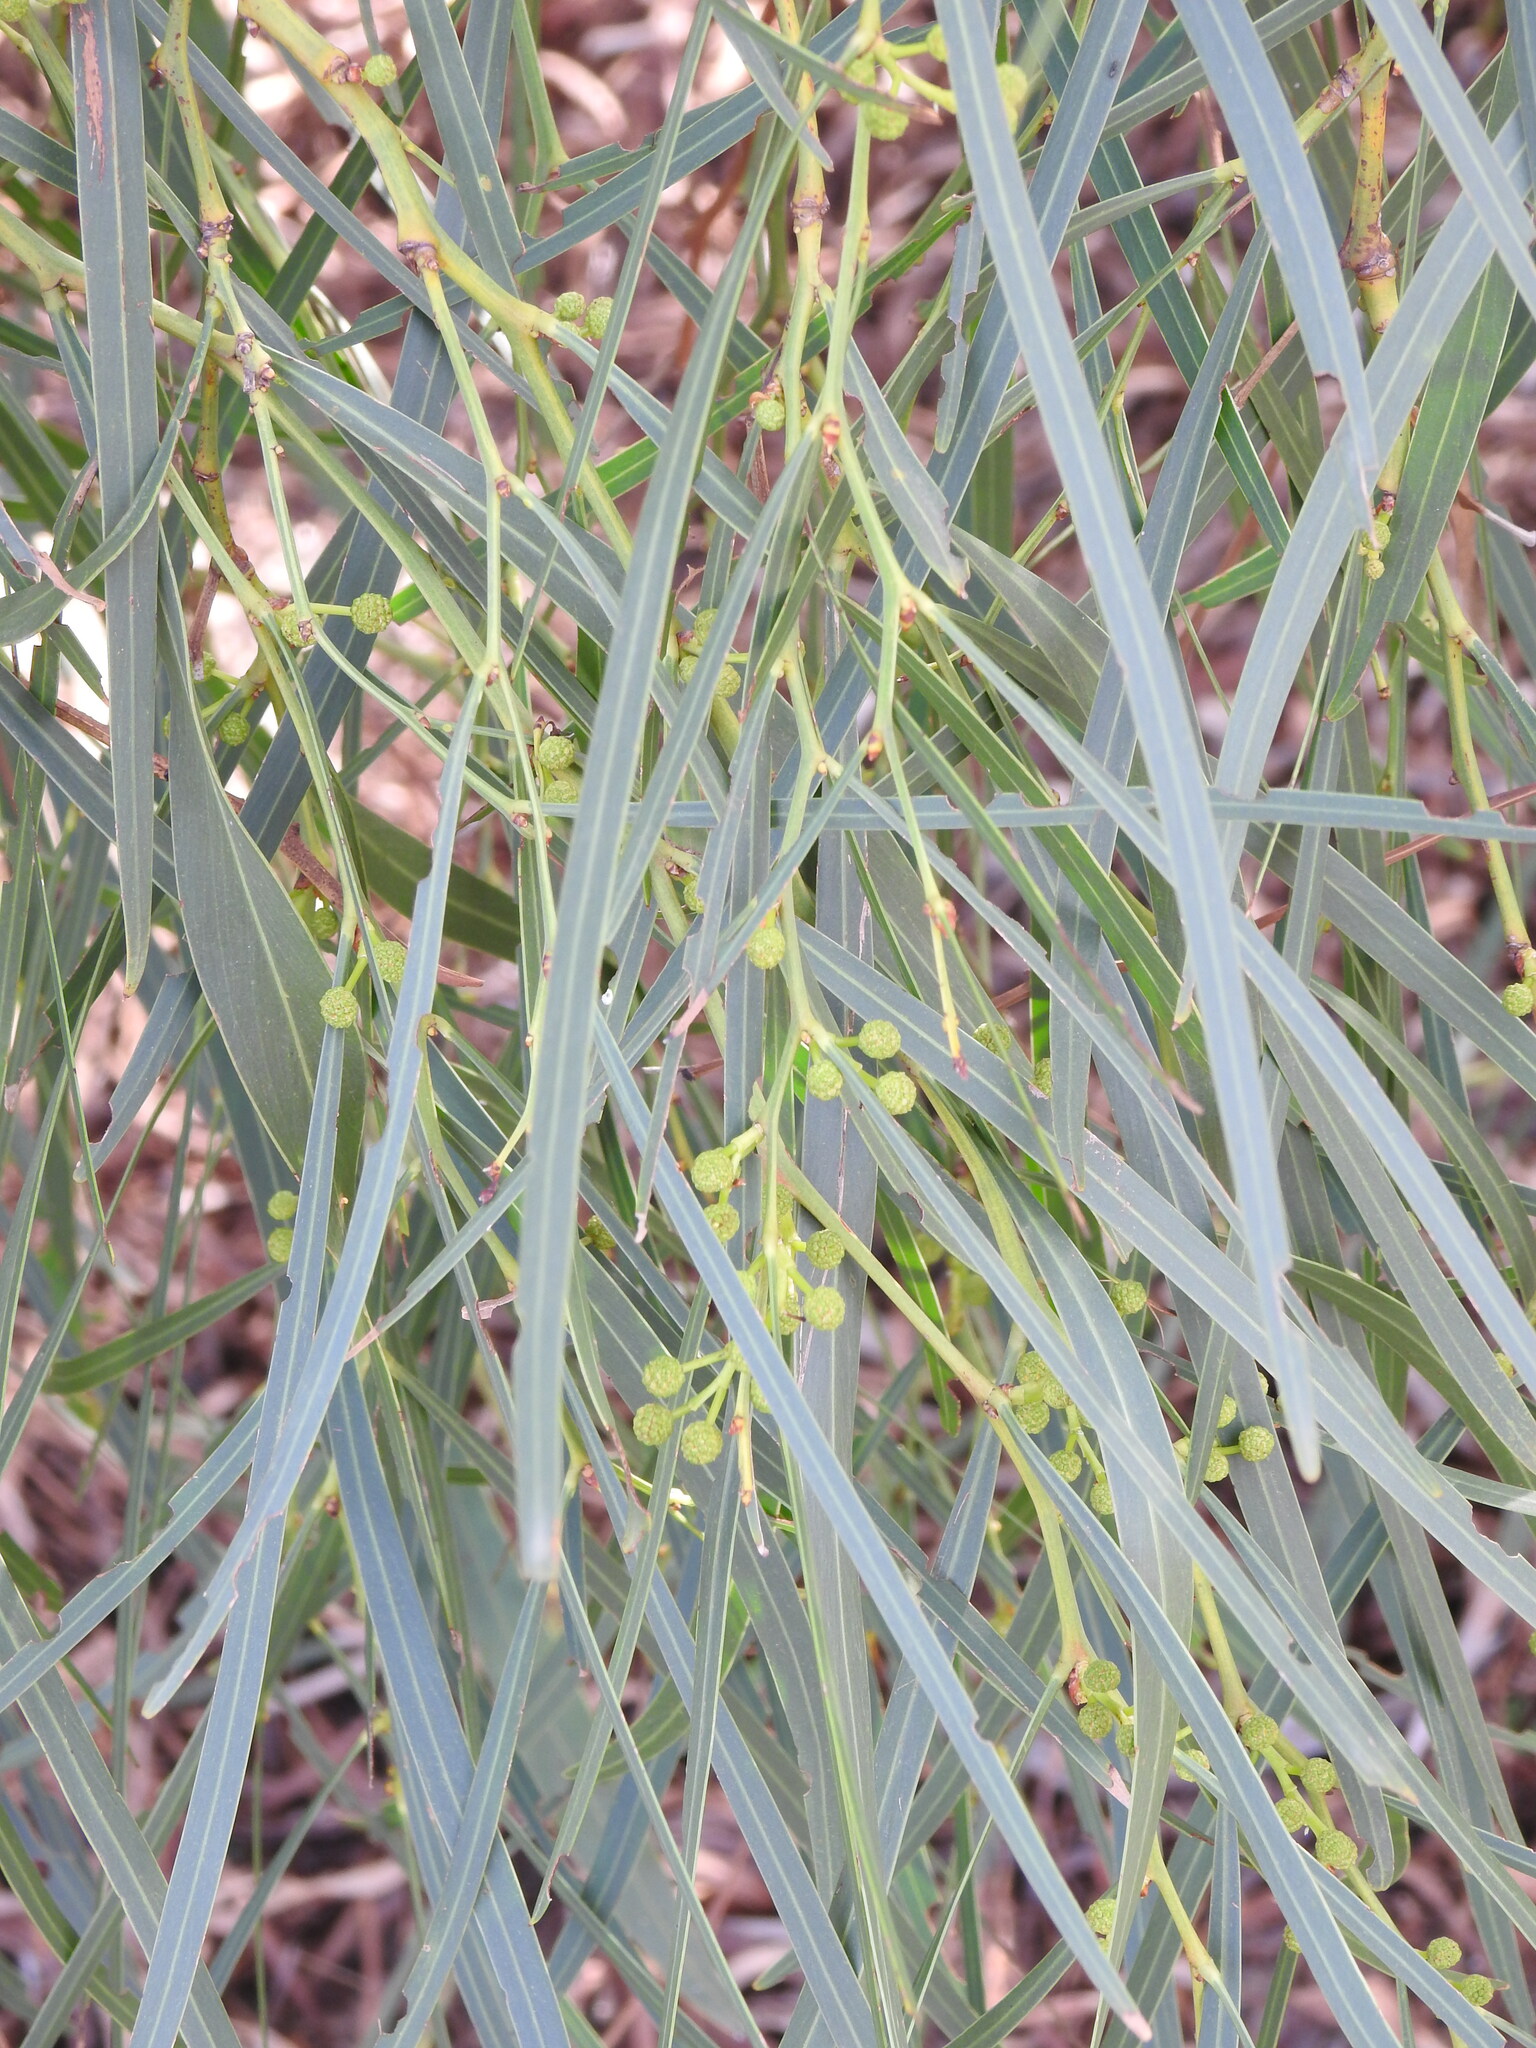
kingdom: Plantae
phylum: Tracheophyta
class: Magnoliopsida
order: Fabales
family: Fabaceae
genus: Acacia
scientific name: Acacia saligna
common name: Orange wattle
